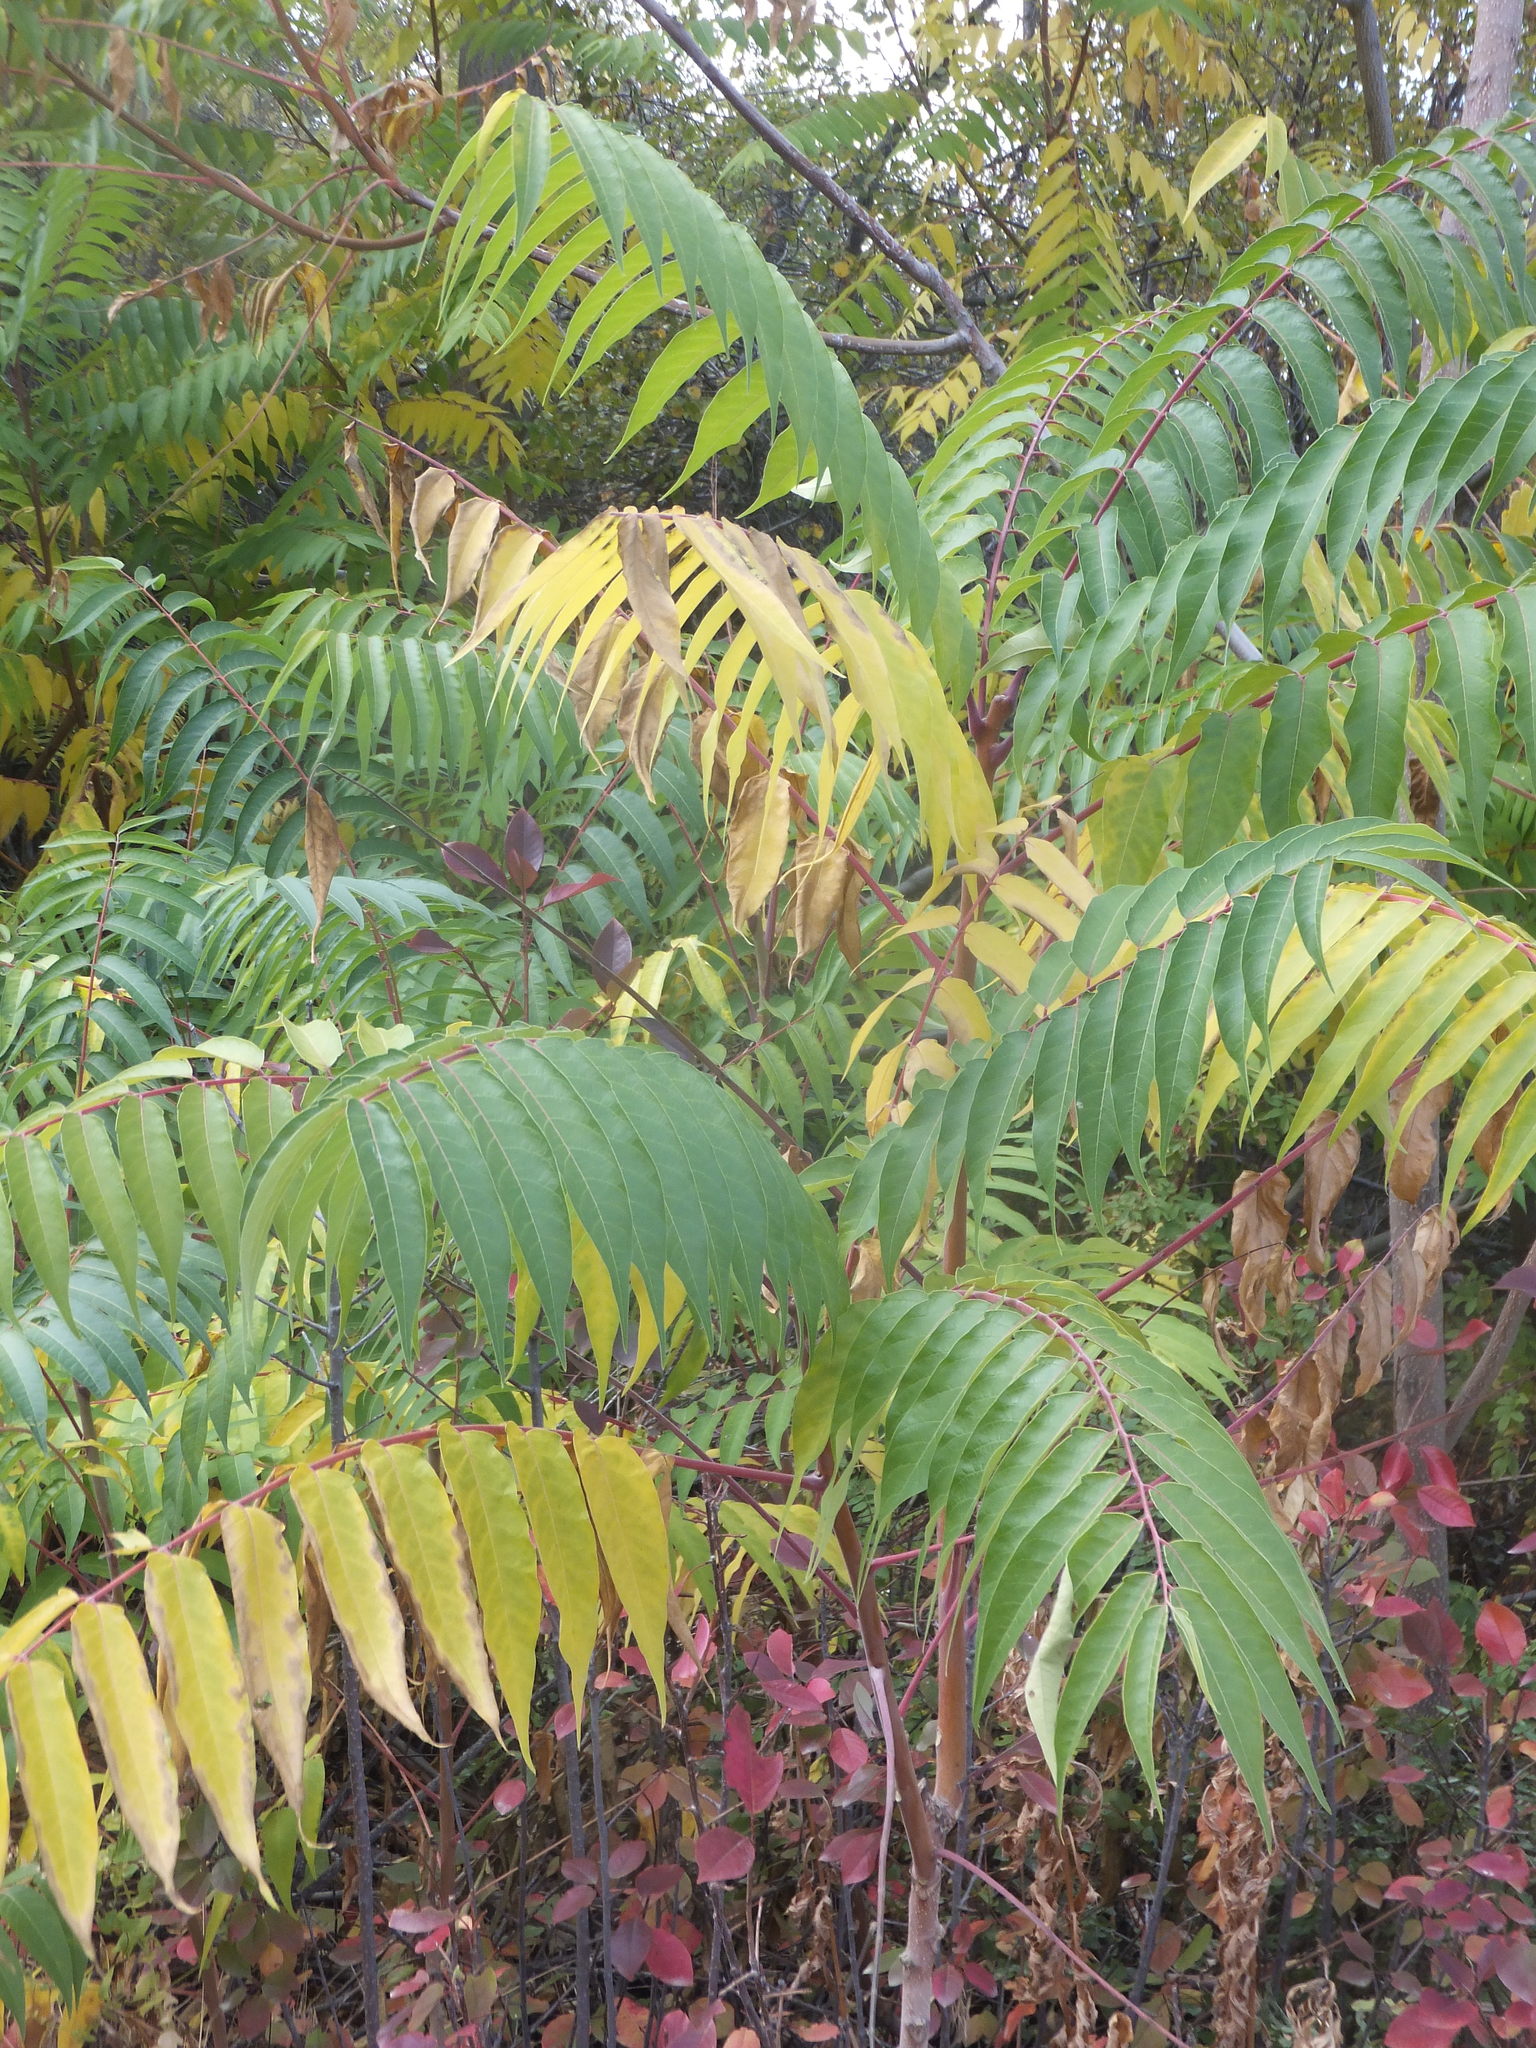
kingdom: Plantae
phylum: Tracheophyta
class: Magnoliopsida
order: Sapindales
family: Simaroubaceae
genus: Ailanthus
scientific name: Ailanthus altissima
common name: Tree-of-heaven
